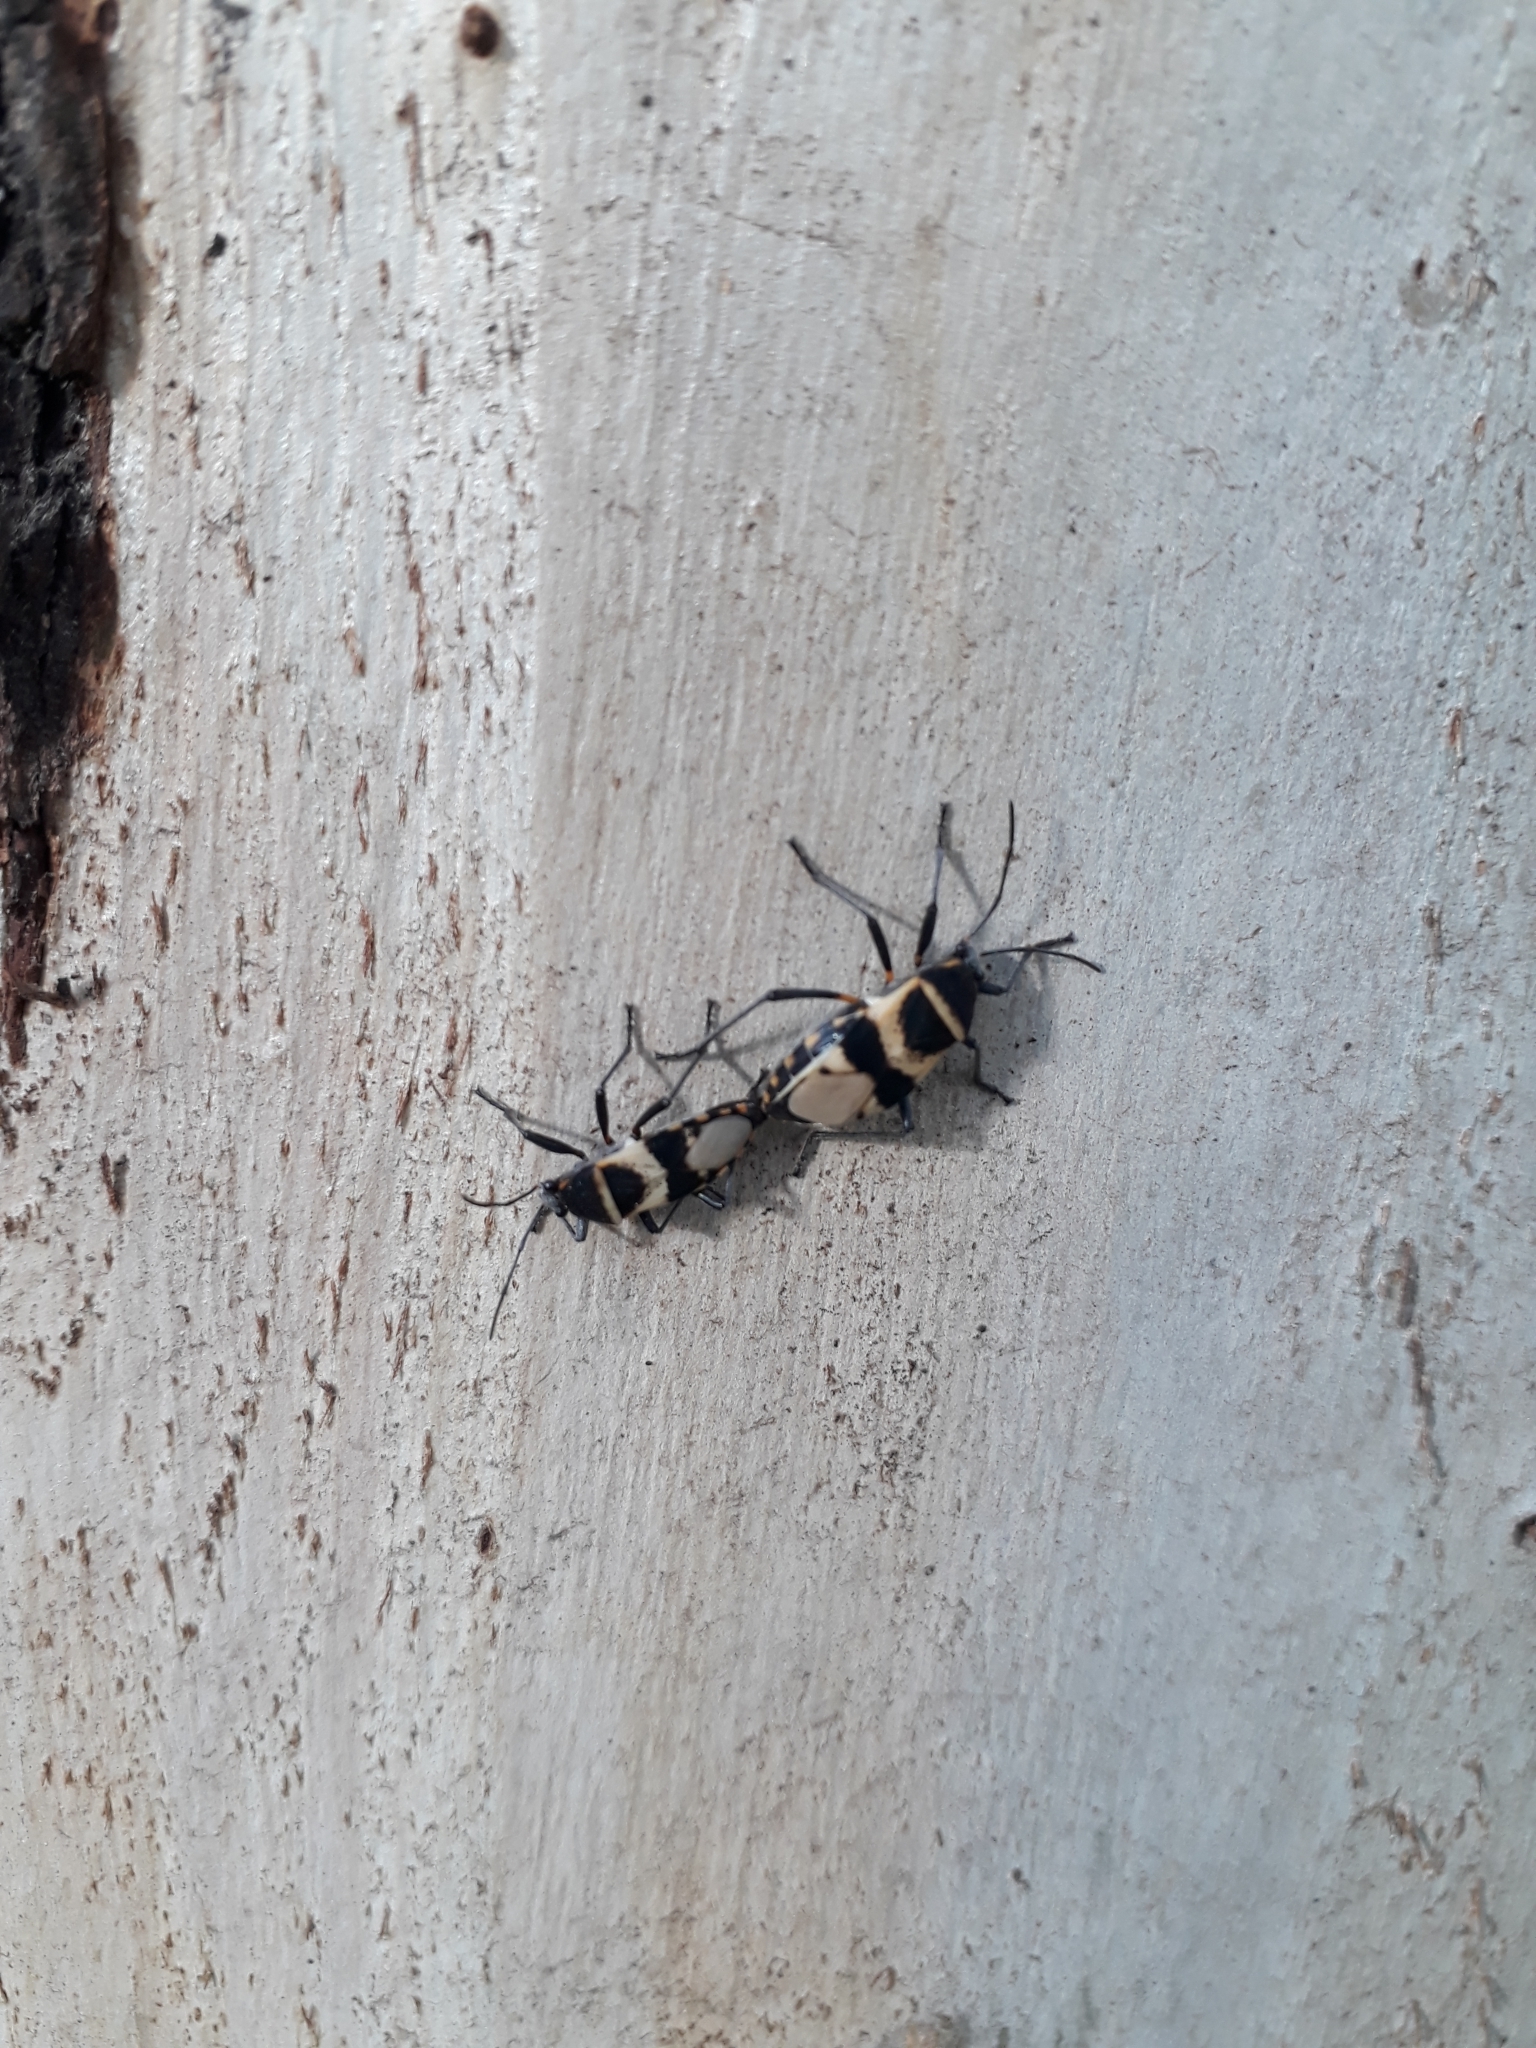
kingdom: Animalia
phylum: Arthropoda
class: Insecta
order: Hemiptera
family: Largidae
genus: Largus
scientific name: Largus fasciatus
